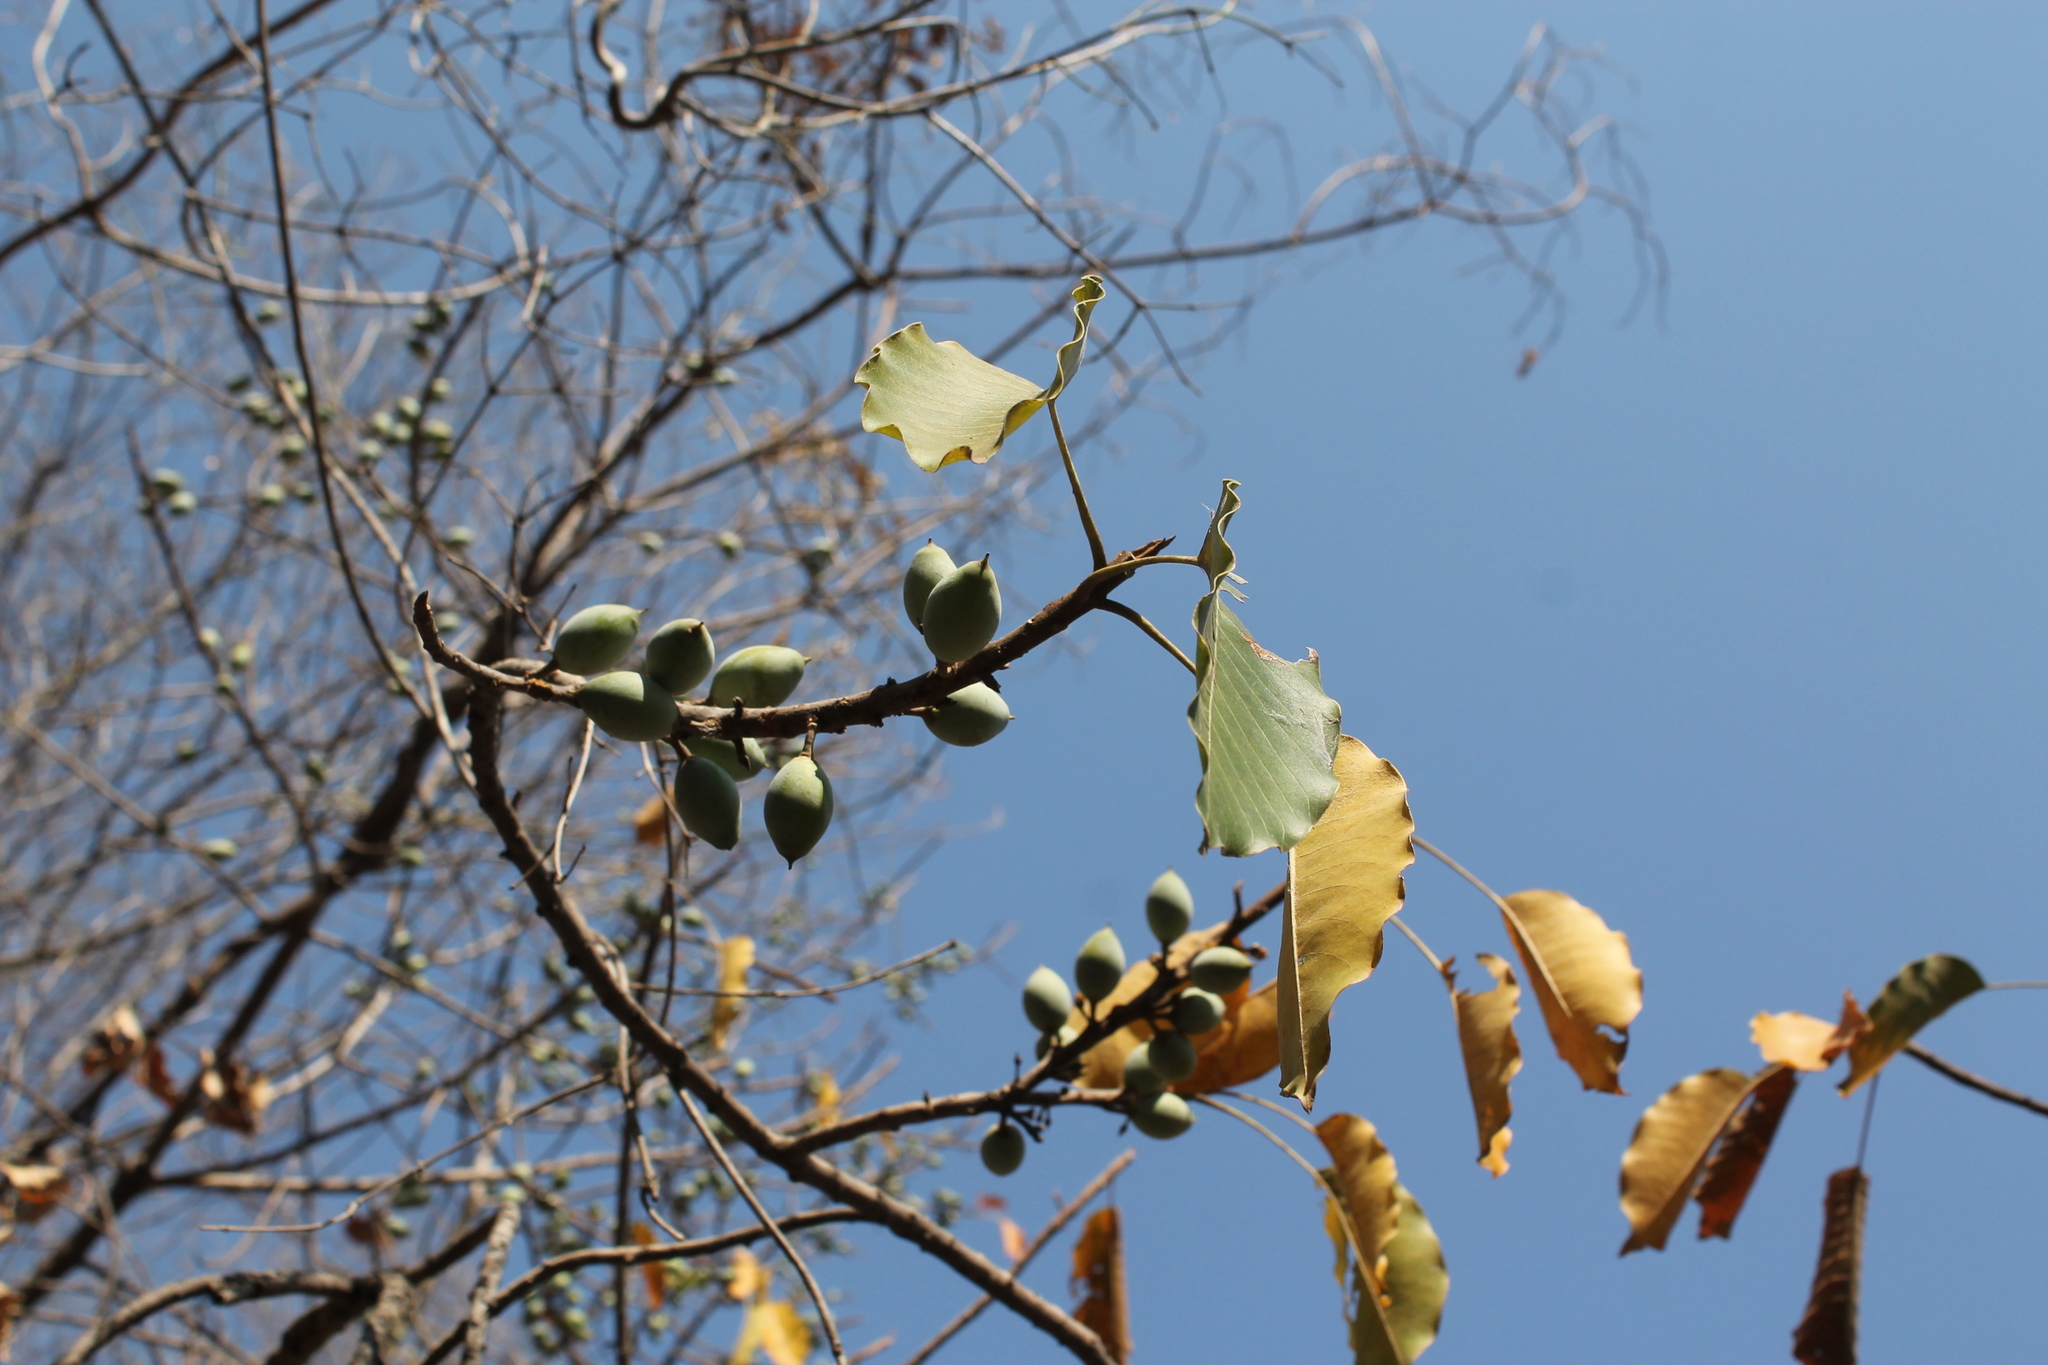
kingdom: Plantae
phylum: Tracheophyta
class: Magnoliopsida
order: Ericales
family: Sapotaceae
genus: Sideroxylon
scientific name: Sideroxylon capiri
